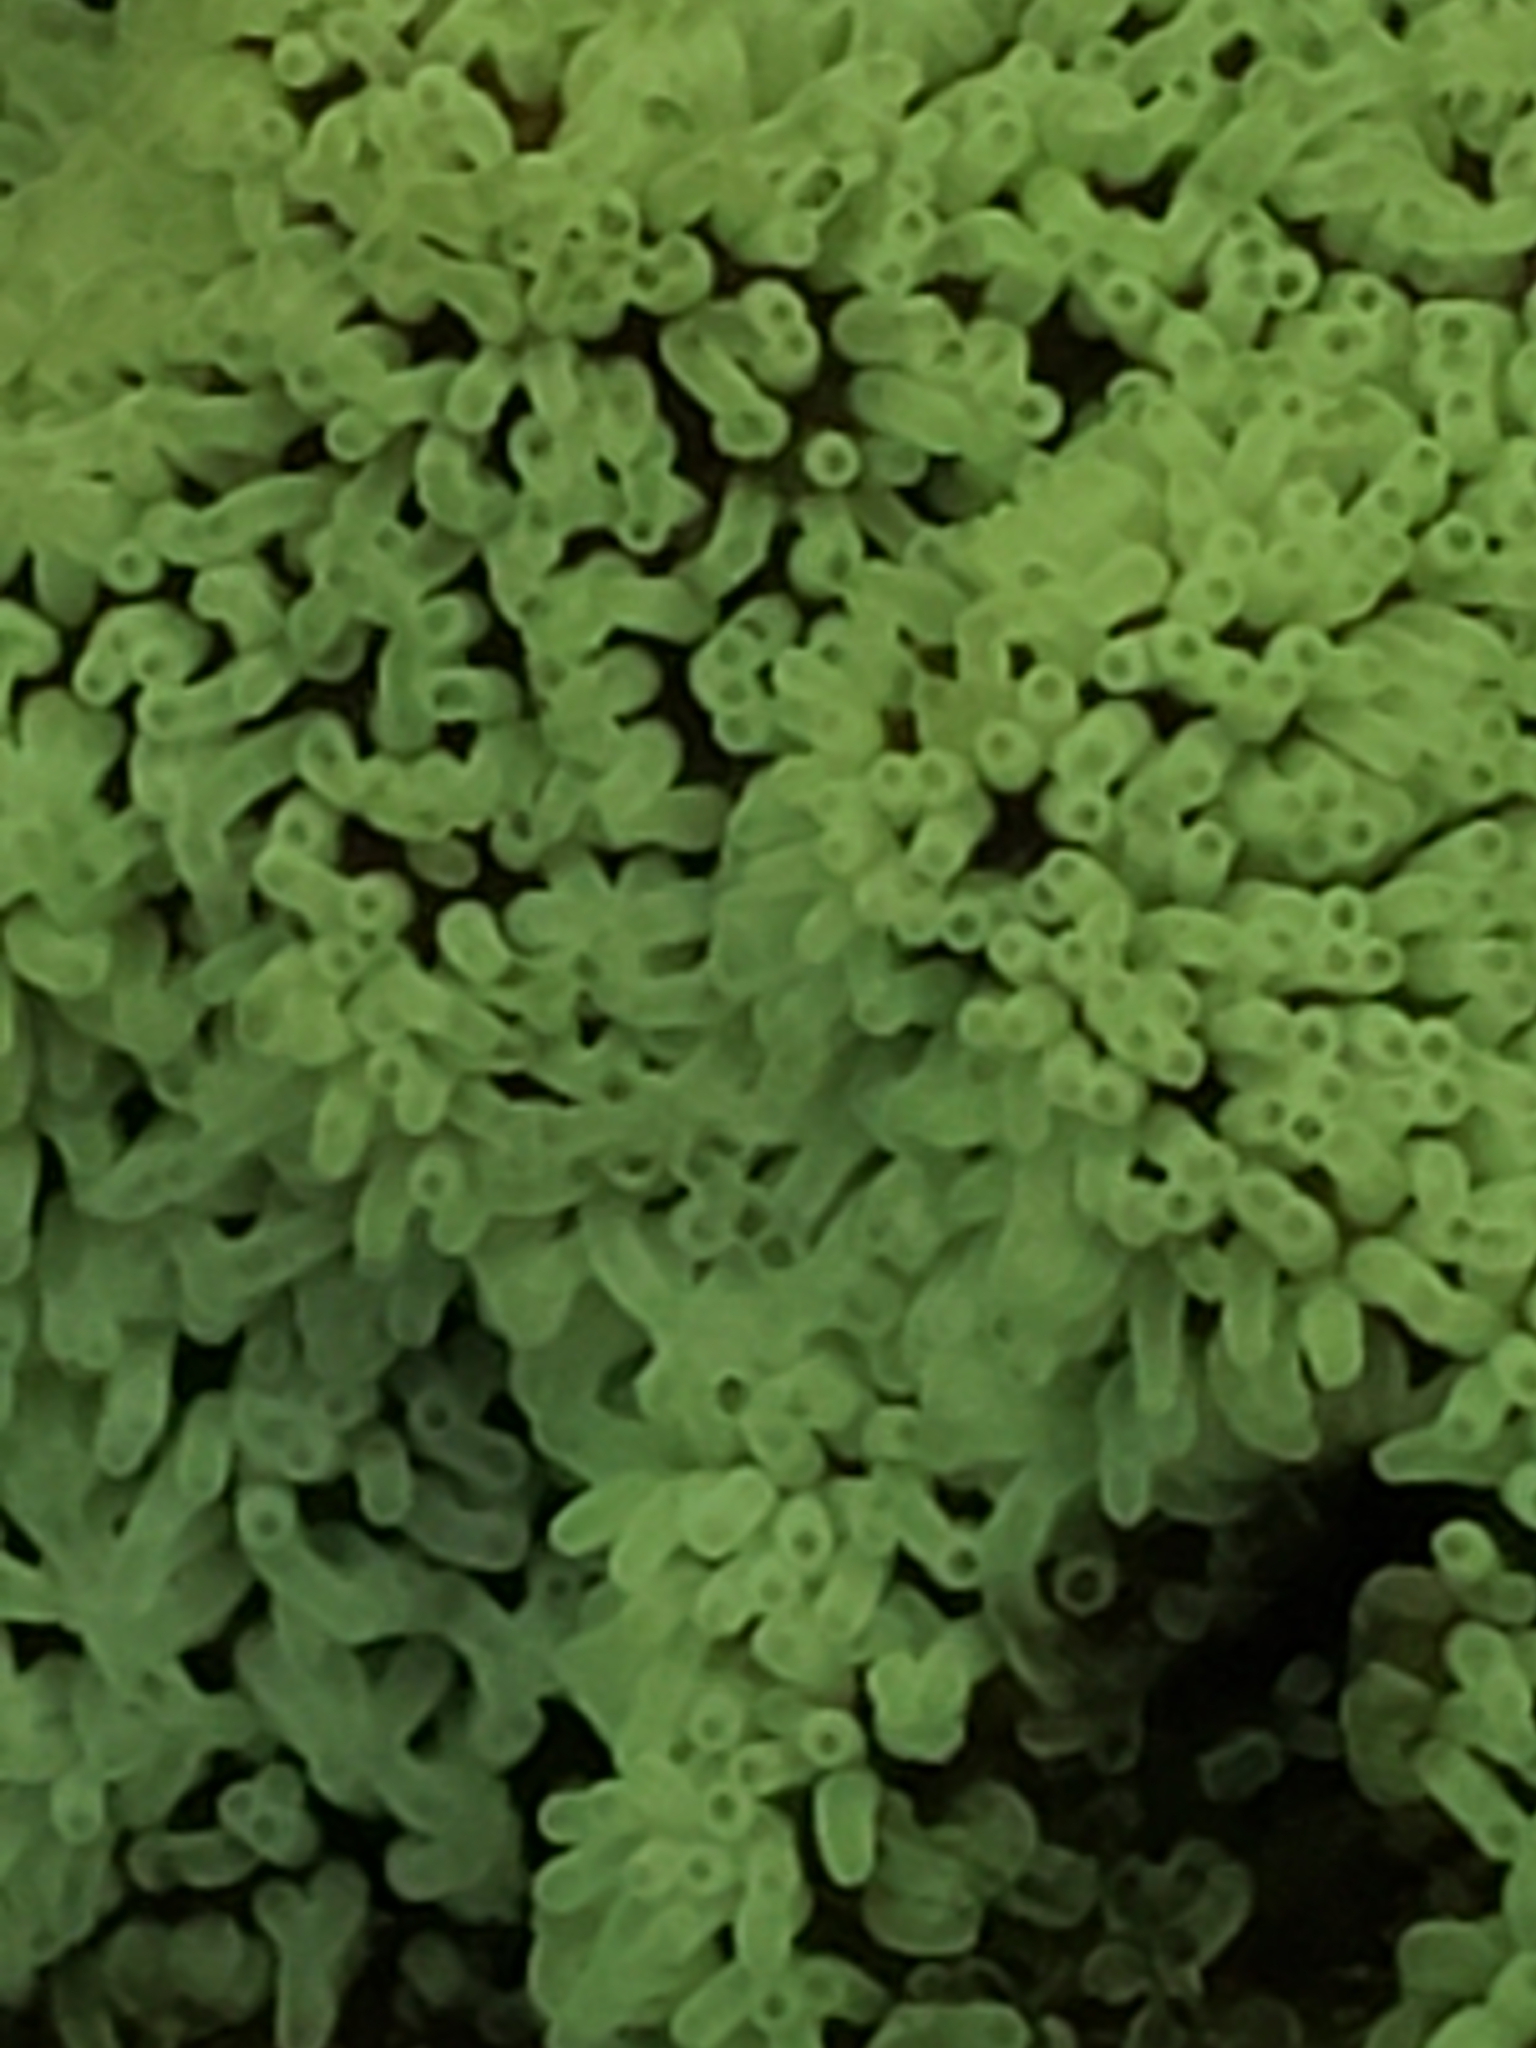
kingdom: Protozoa
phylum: Mycetozoa
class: Protosteliomycetes
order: Ceratiomyxales
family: Ceratiomyxaceae
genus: Ceratiomyxa
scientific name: Ceratiomyxa fruticulosa
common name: Honeycomb coral slime mold
